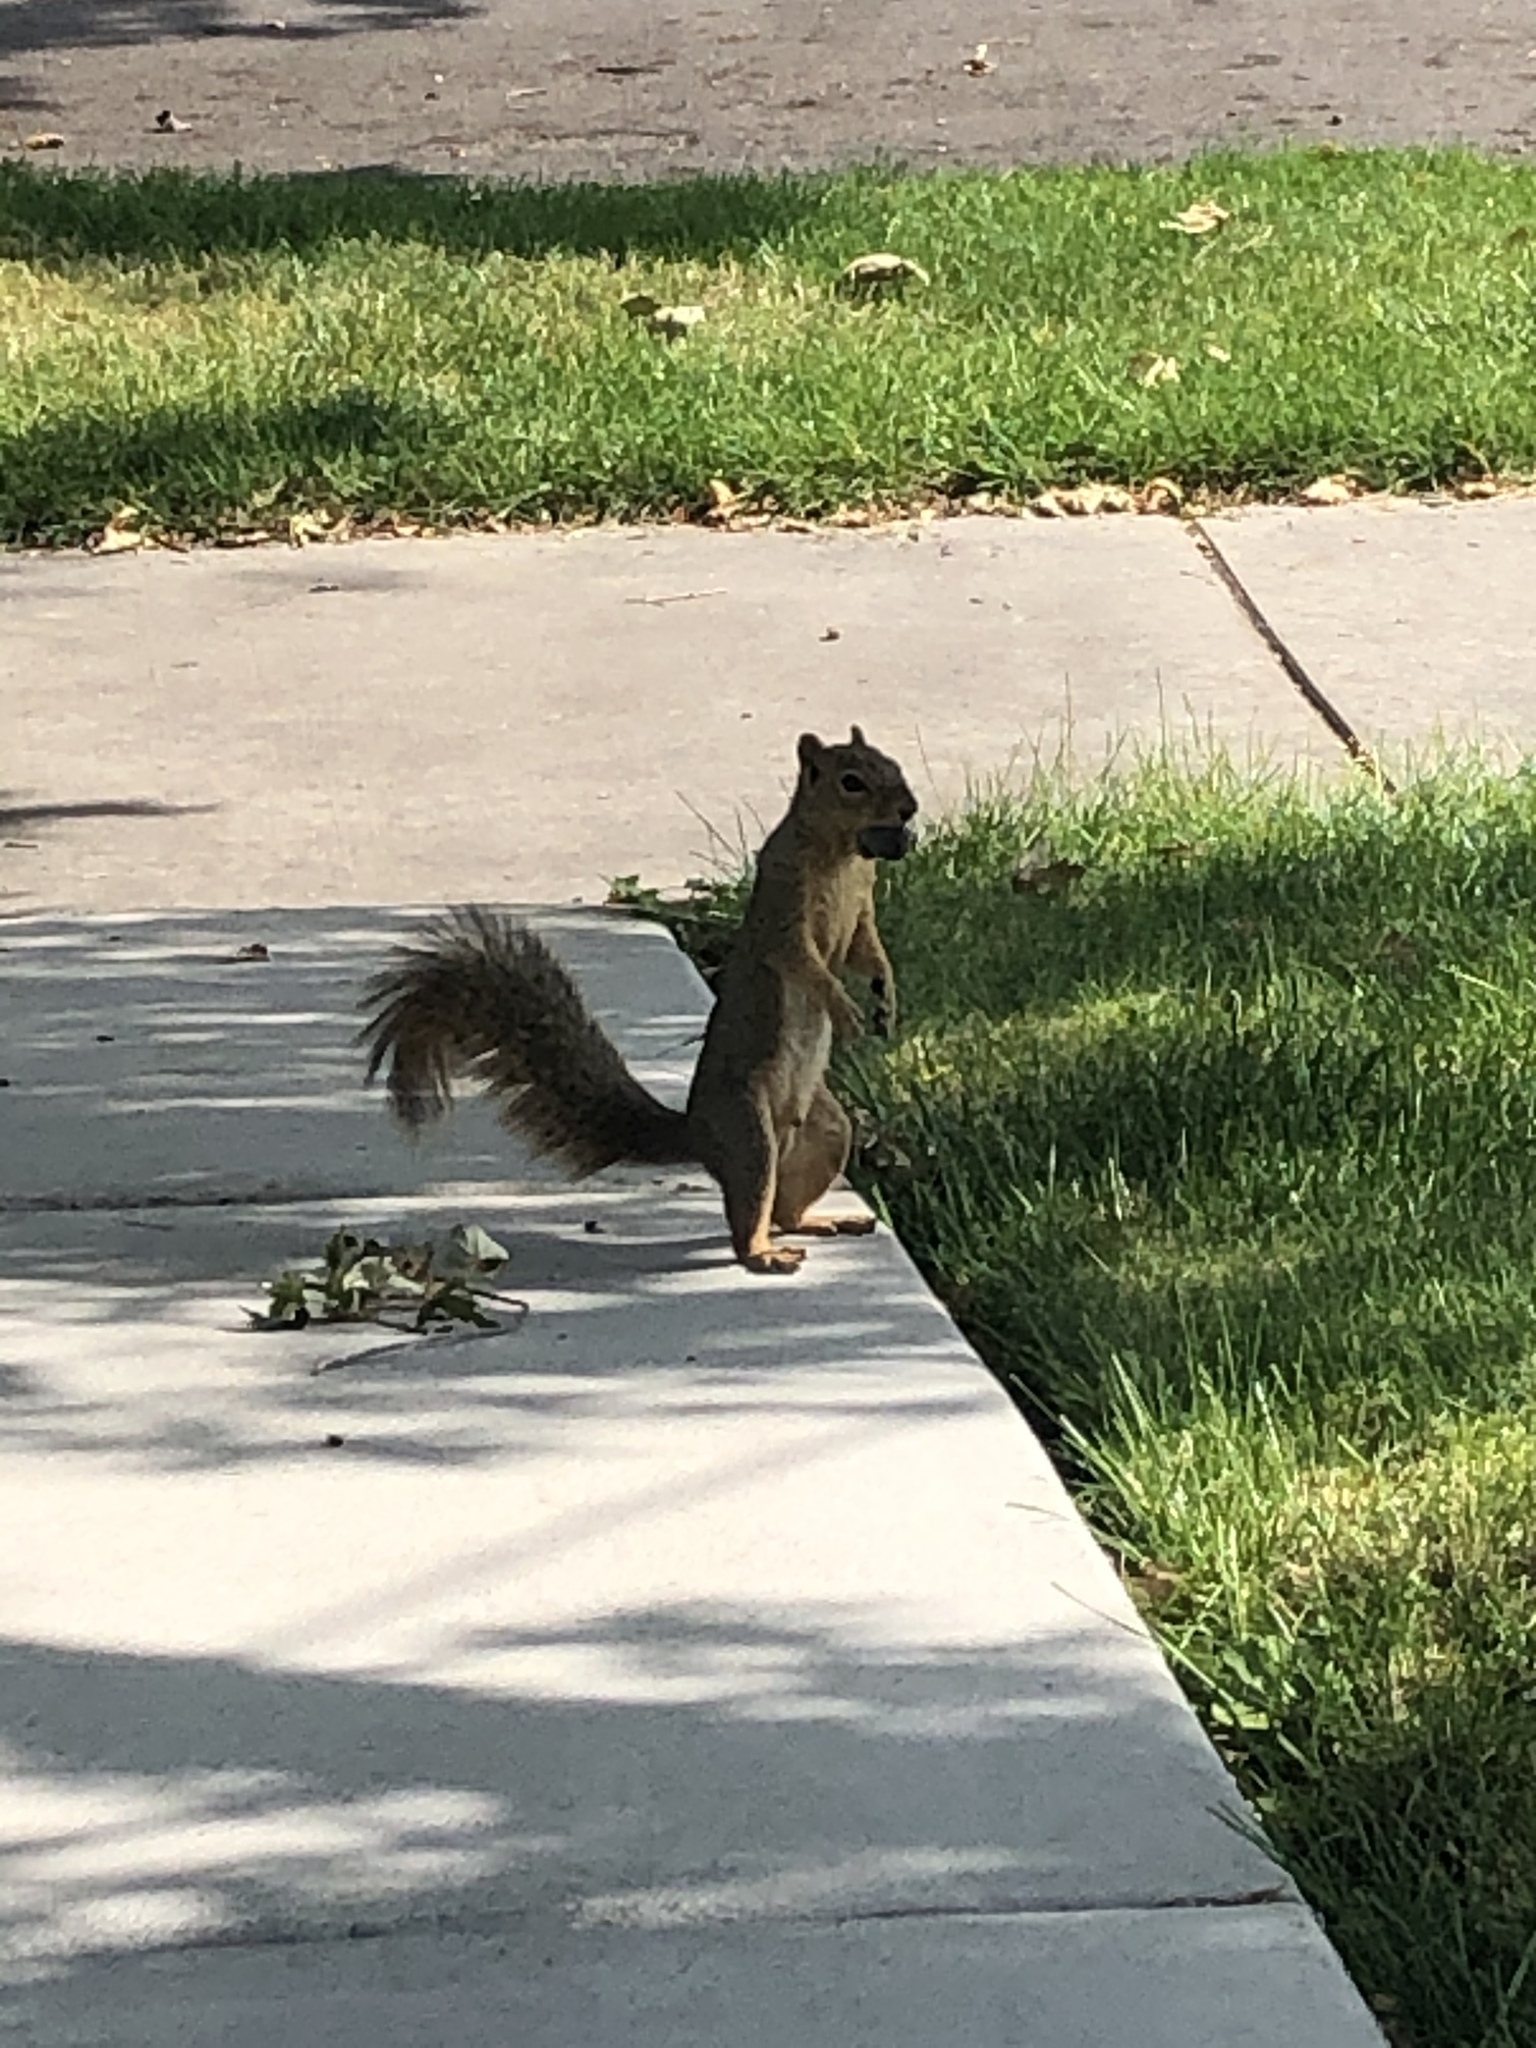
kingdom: Animalia
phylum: Chordata
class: Mammalia
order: Rodentia
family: Sciuridae
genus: Sciurus
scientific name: Sciurus niger
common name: Fox squirrel
